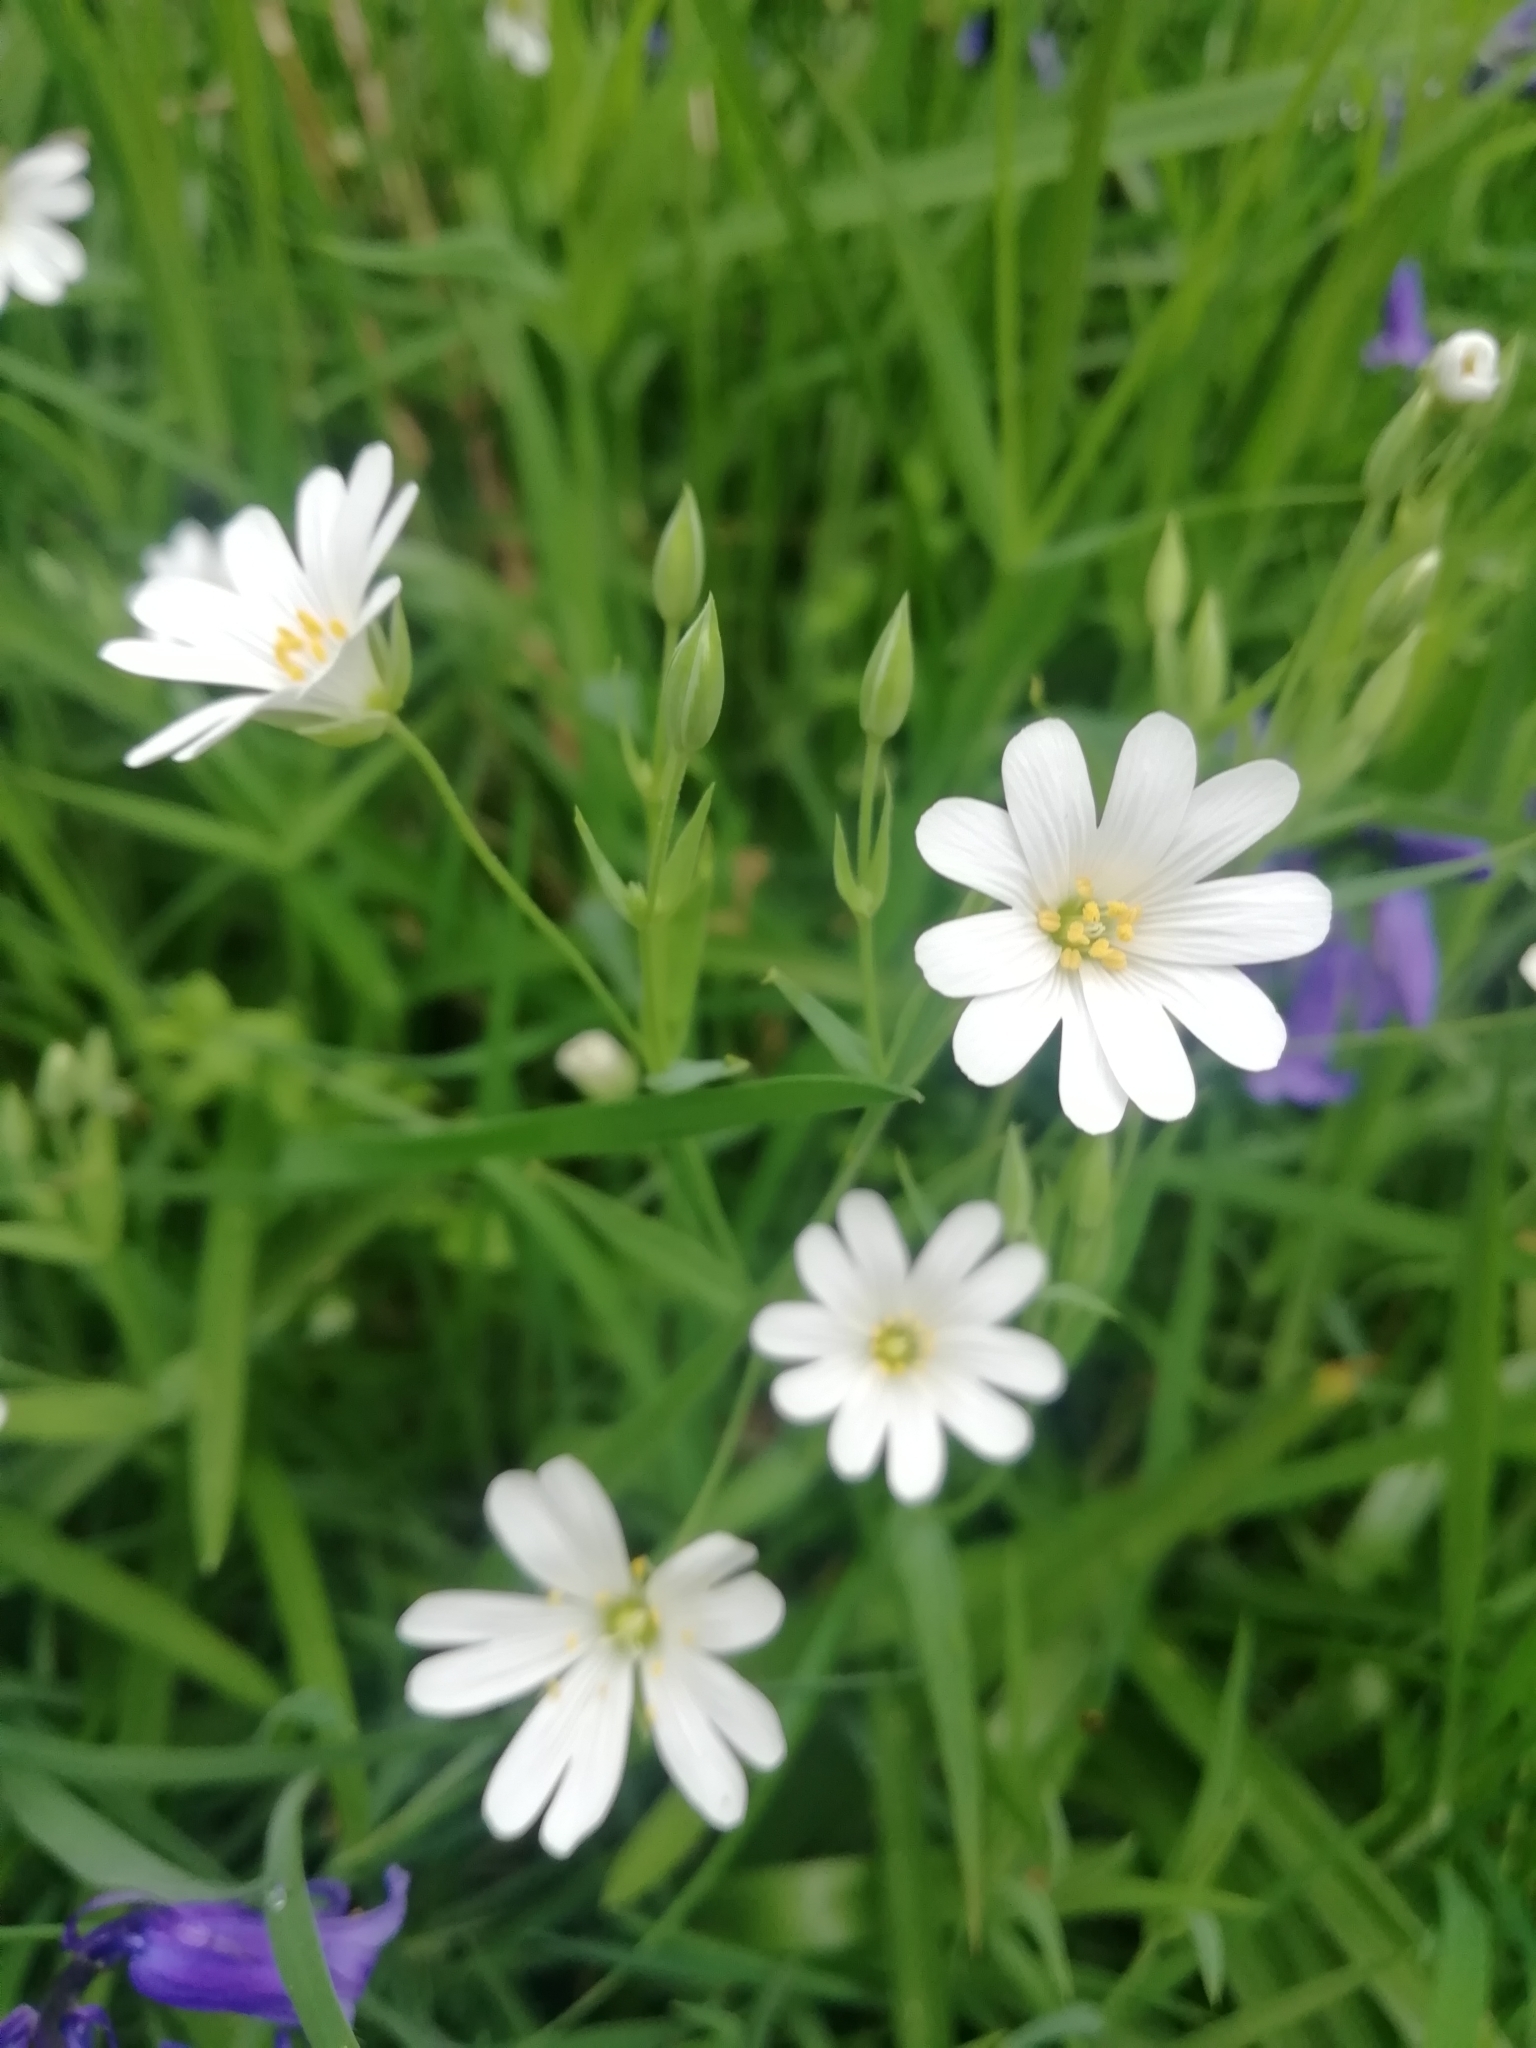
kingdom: Plantae
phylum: Tracheophyta
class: Magnoliopsida
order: Caryophyllales
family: Caryophyllaceae
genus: Rabelera
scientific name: Rabelera holostea
